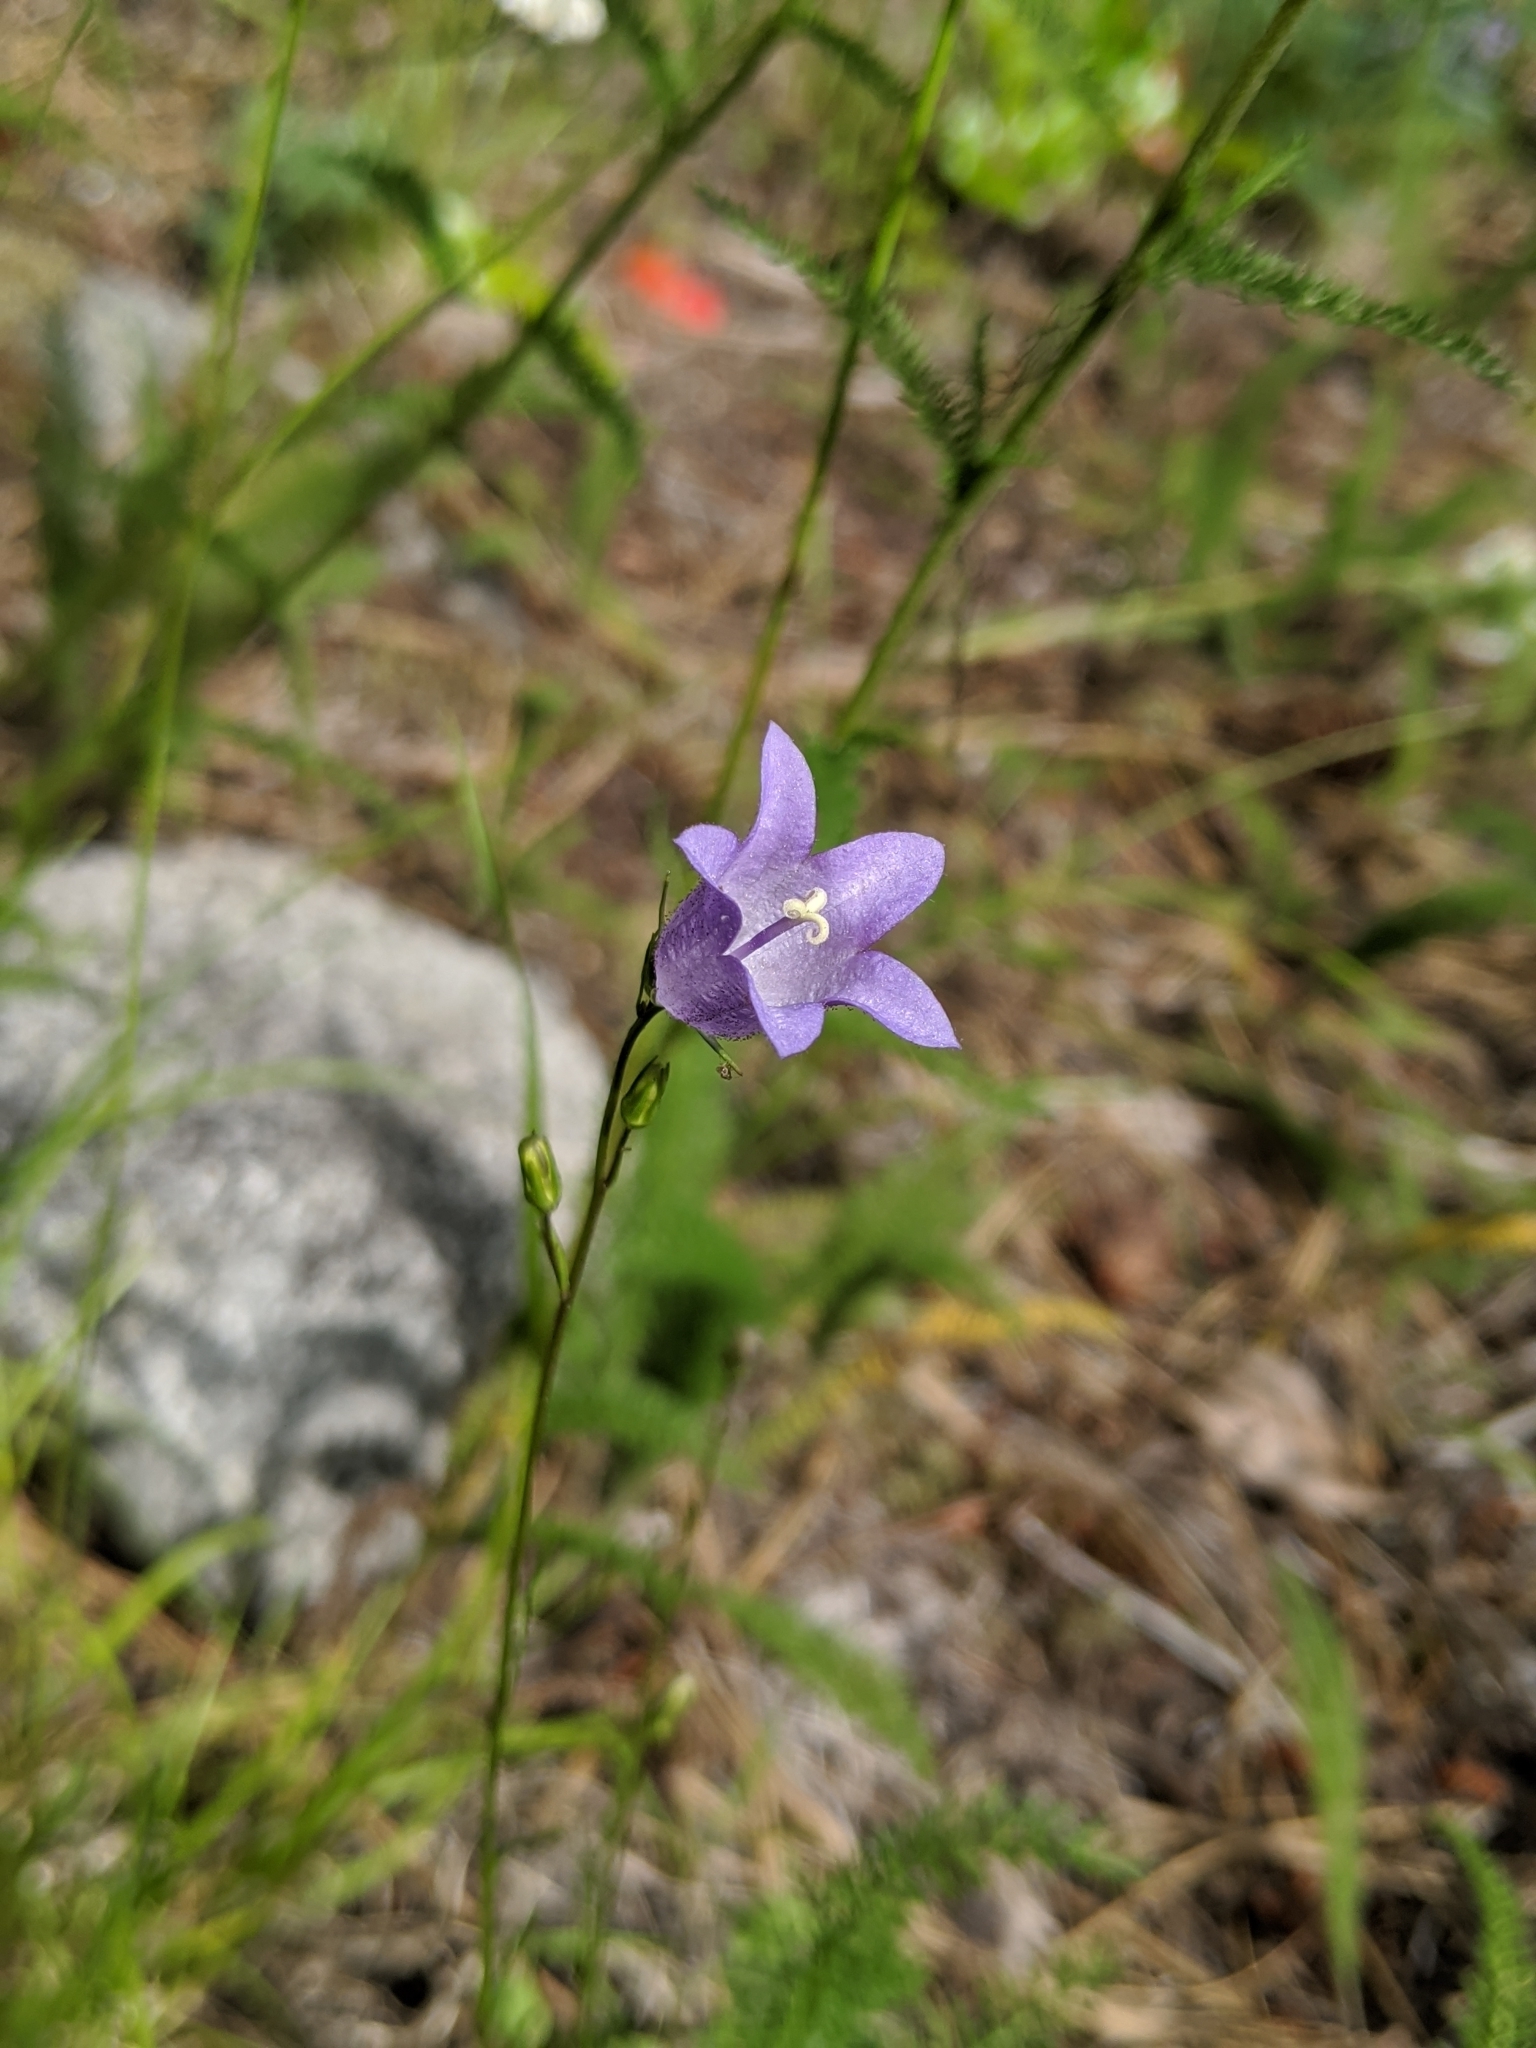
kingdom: Plantae
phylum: Tracheophyta
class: Magnoliopsida
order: Asterales
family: Campanulaceae
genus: Campanula
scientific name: Campanula alaskana
